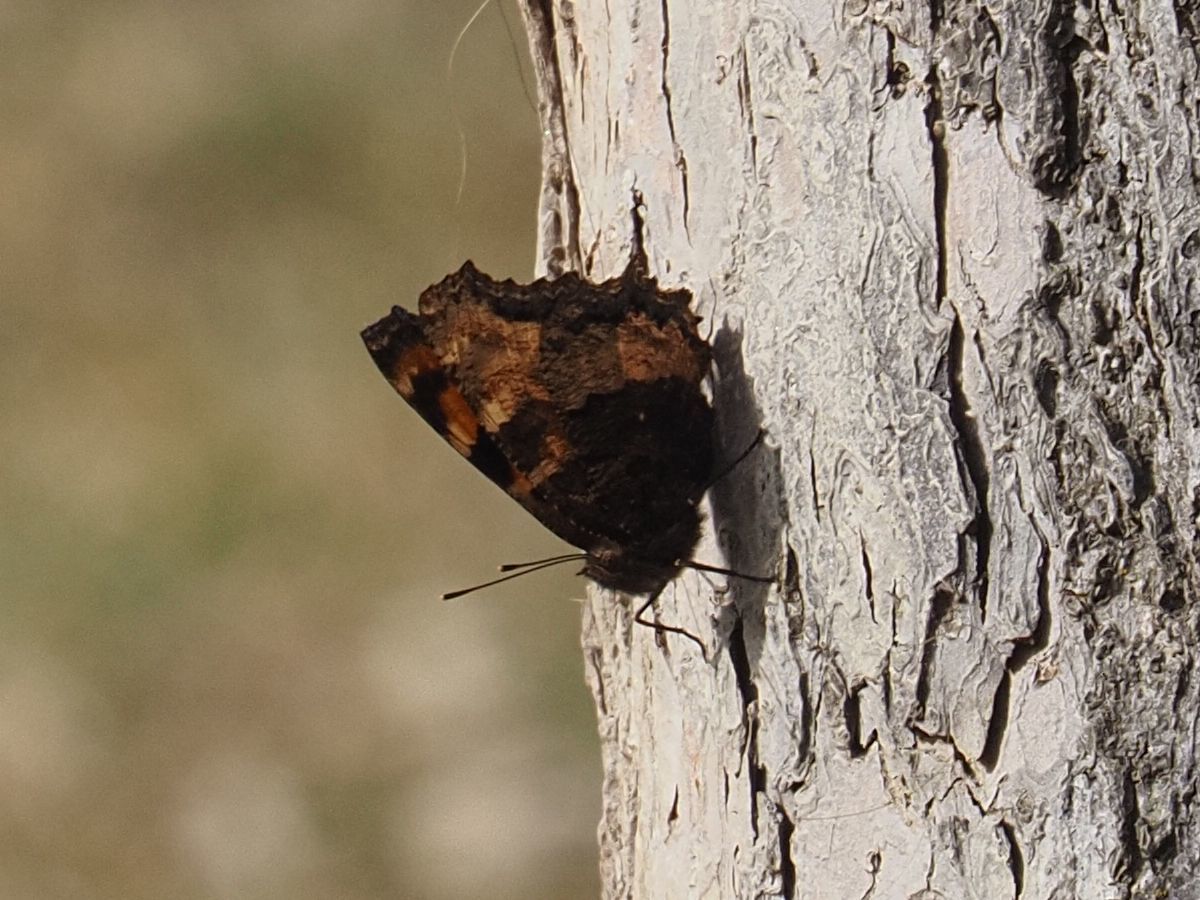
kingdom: Animalia
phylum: Arthropoda
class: Insecta
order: Lepidoptera
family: Nymphalidae
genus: Nymphalis
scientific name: Nymphalis polychloros
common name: Large tortoiseshell
